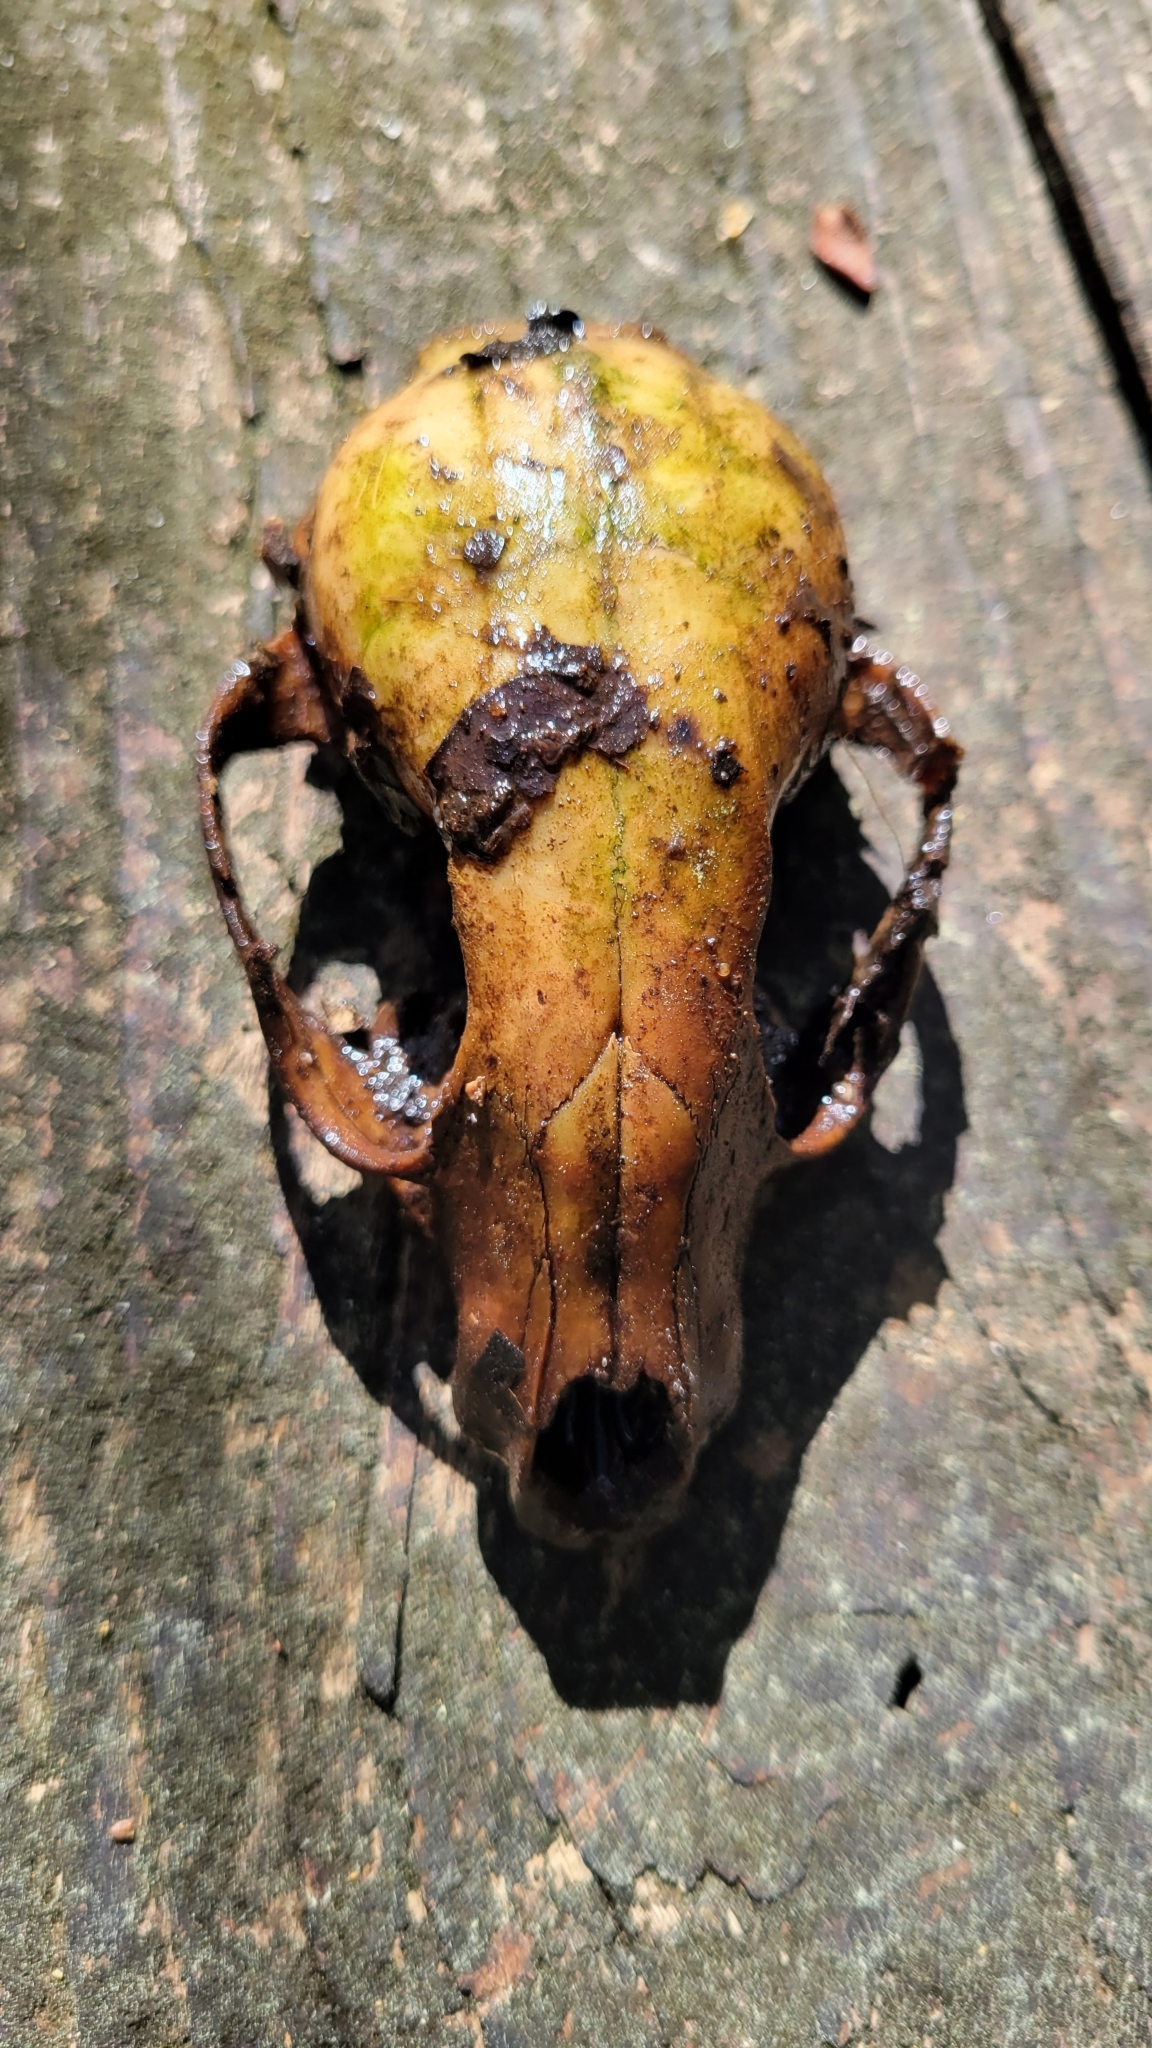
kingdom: Animalia
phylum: Chordata
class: Mammalia
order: Carnivora
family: Procyonidae
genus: Procyon
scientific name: Procyon lotor
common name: Raccoon
